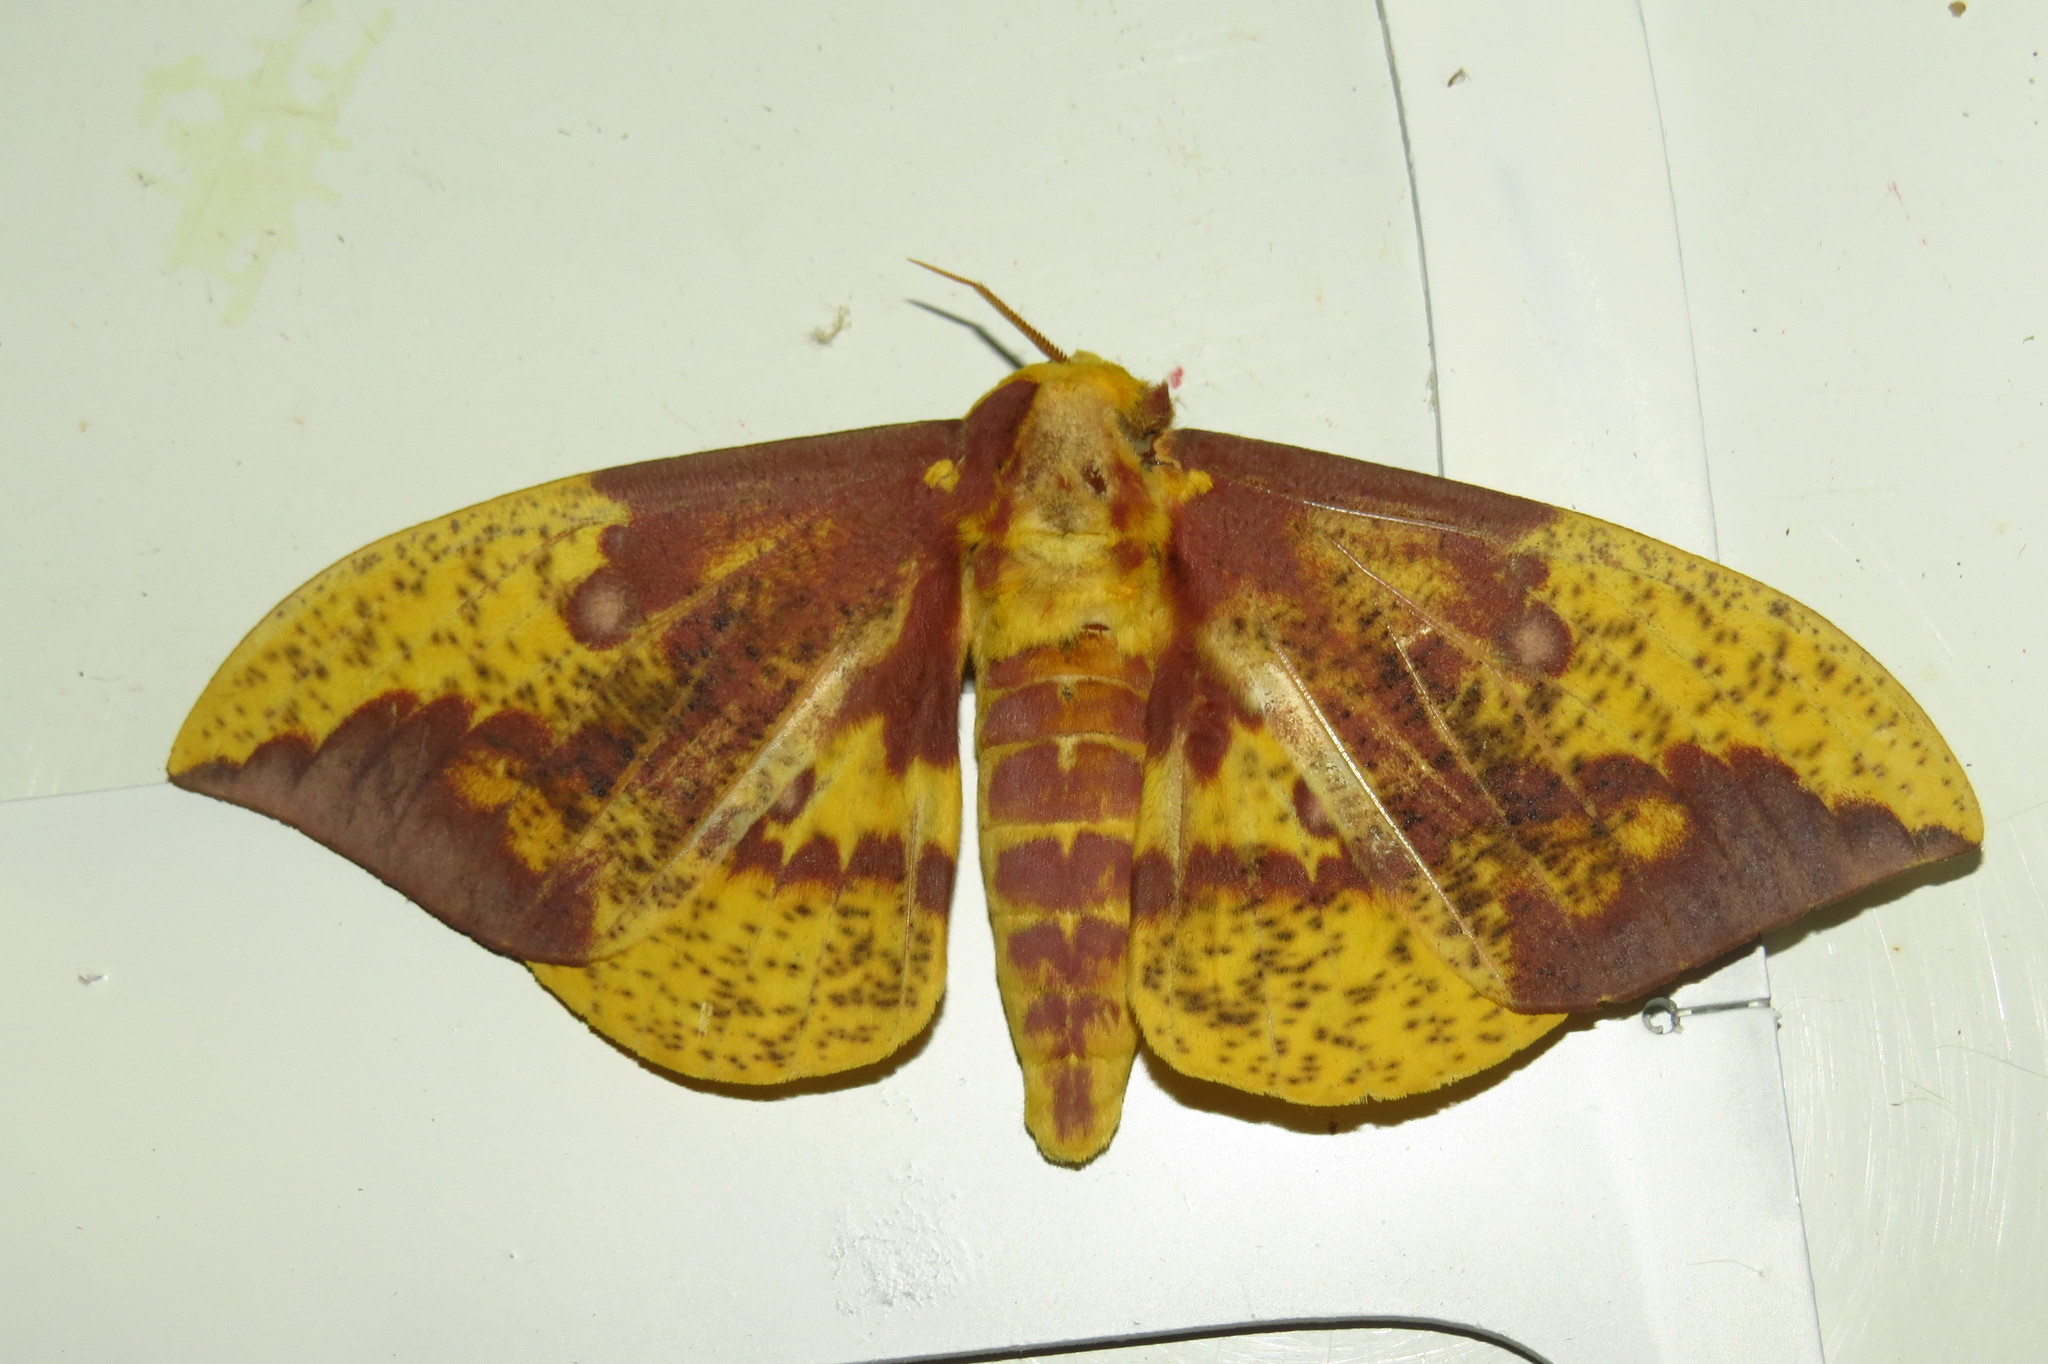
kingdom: Animalia
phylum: Arthropoda
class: Insecta
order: Lepidoptera
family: Saturniidae
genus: Eacles
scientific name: Eacles imperialis
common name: Imperial moth
